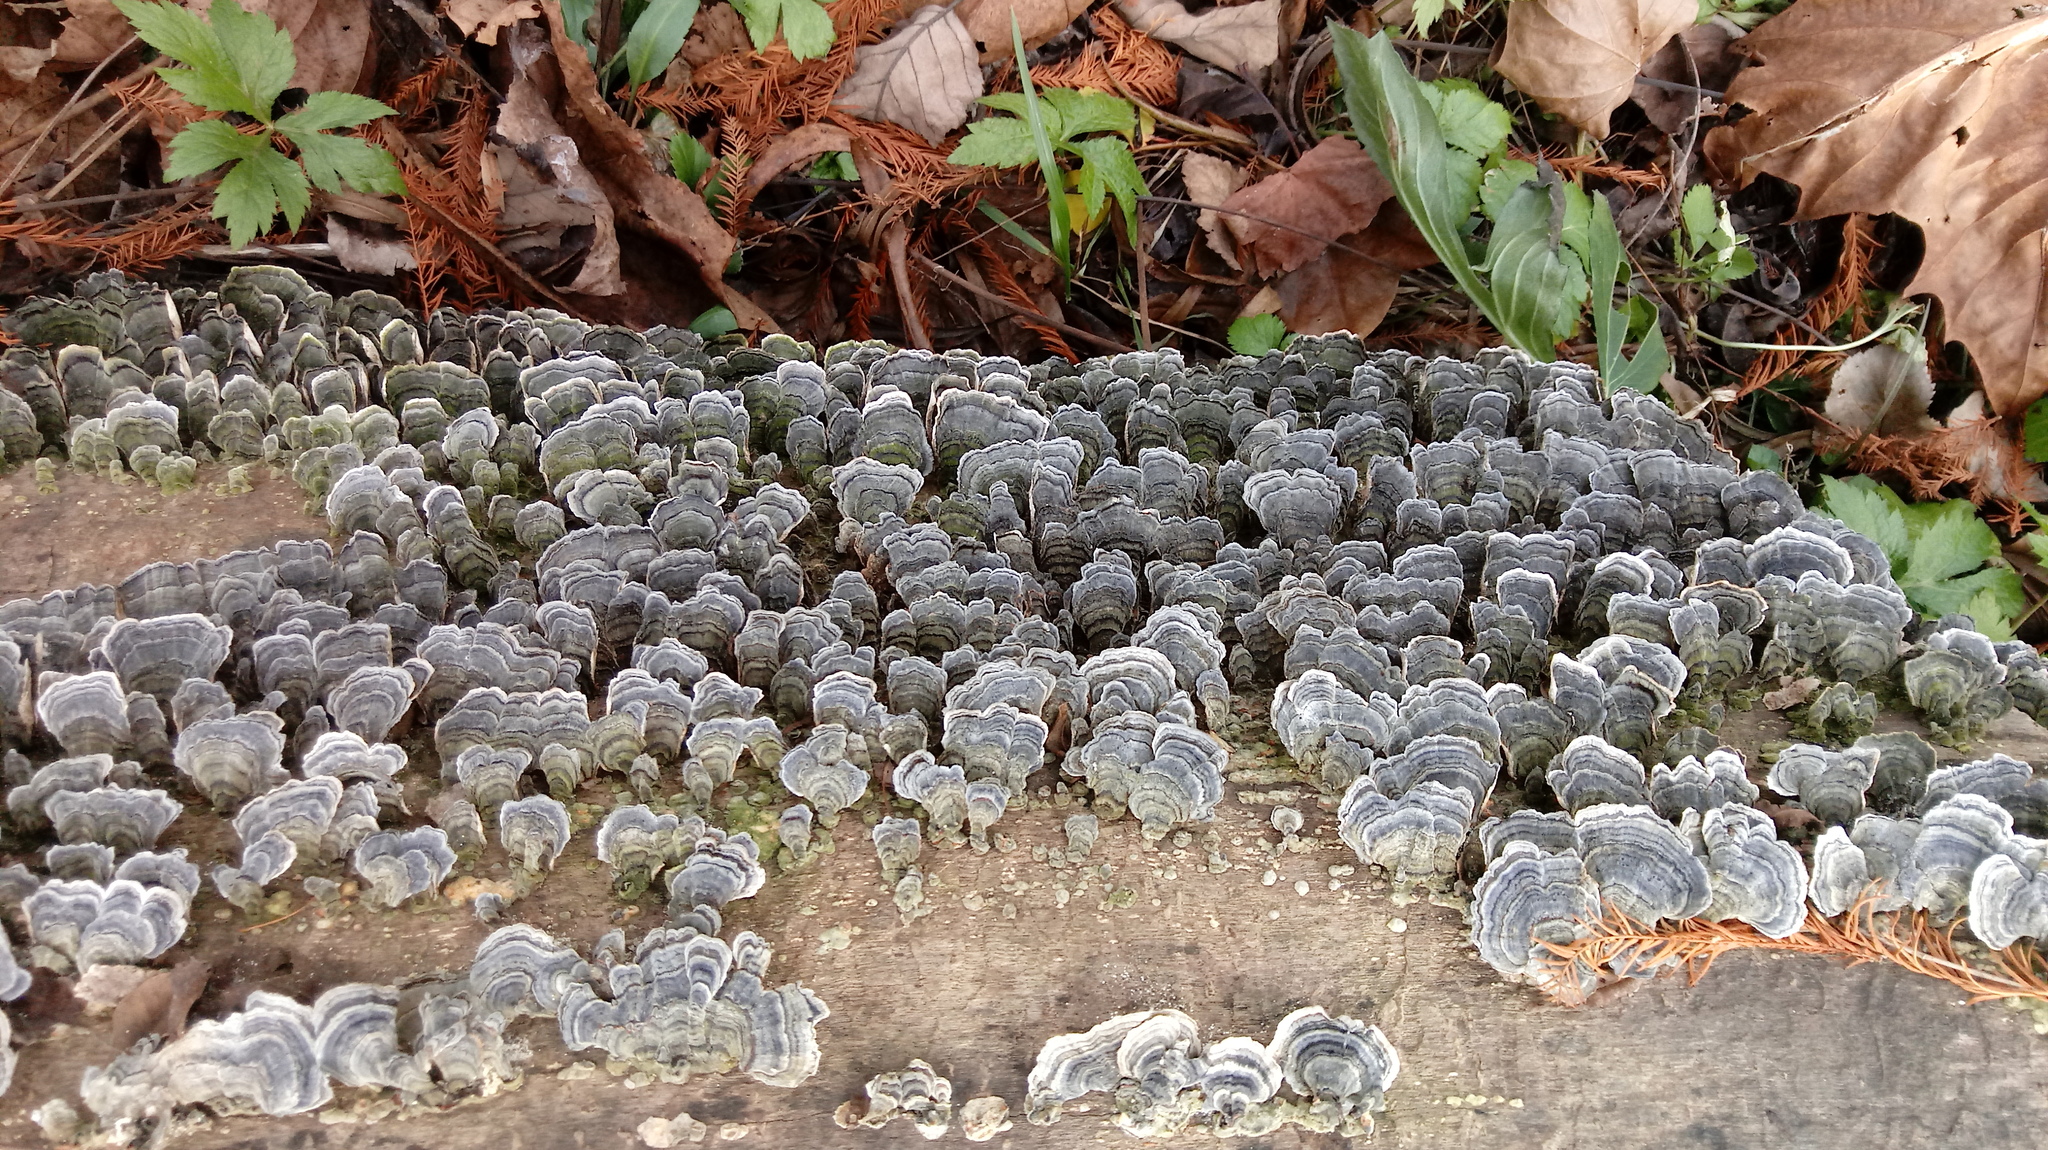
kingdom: Fungi
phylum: Basidiomycota
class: Agaricomycetes
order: Polyporales
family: Polyporaceae
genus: Trametes
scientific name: Trametes versicolor
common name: Turkeytail
